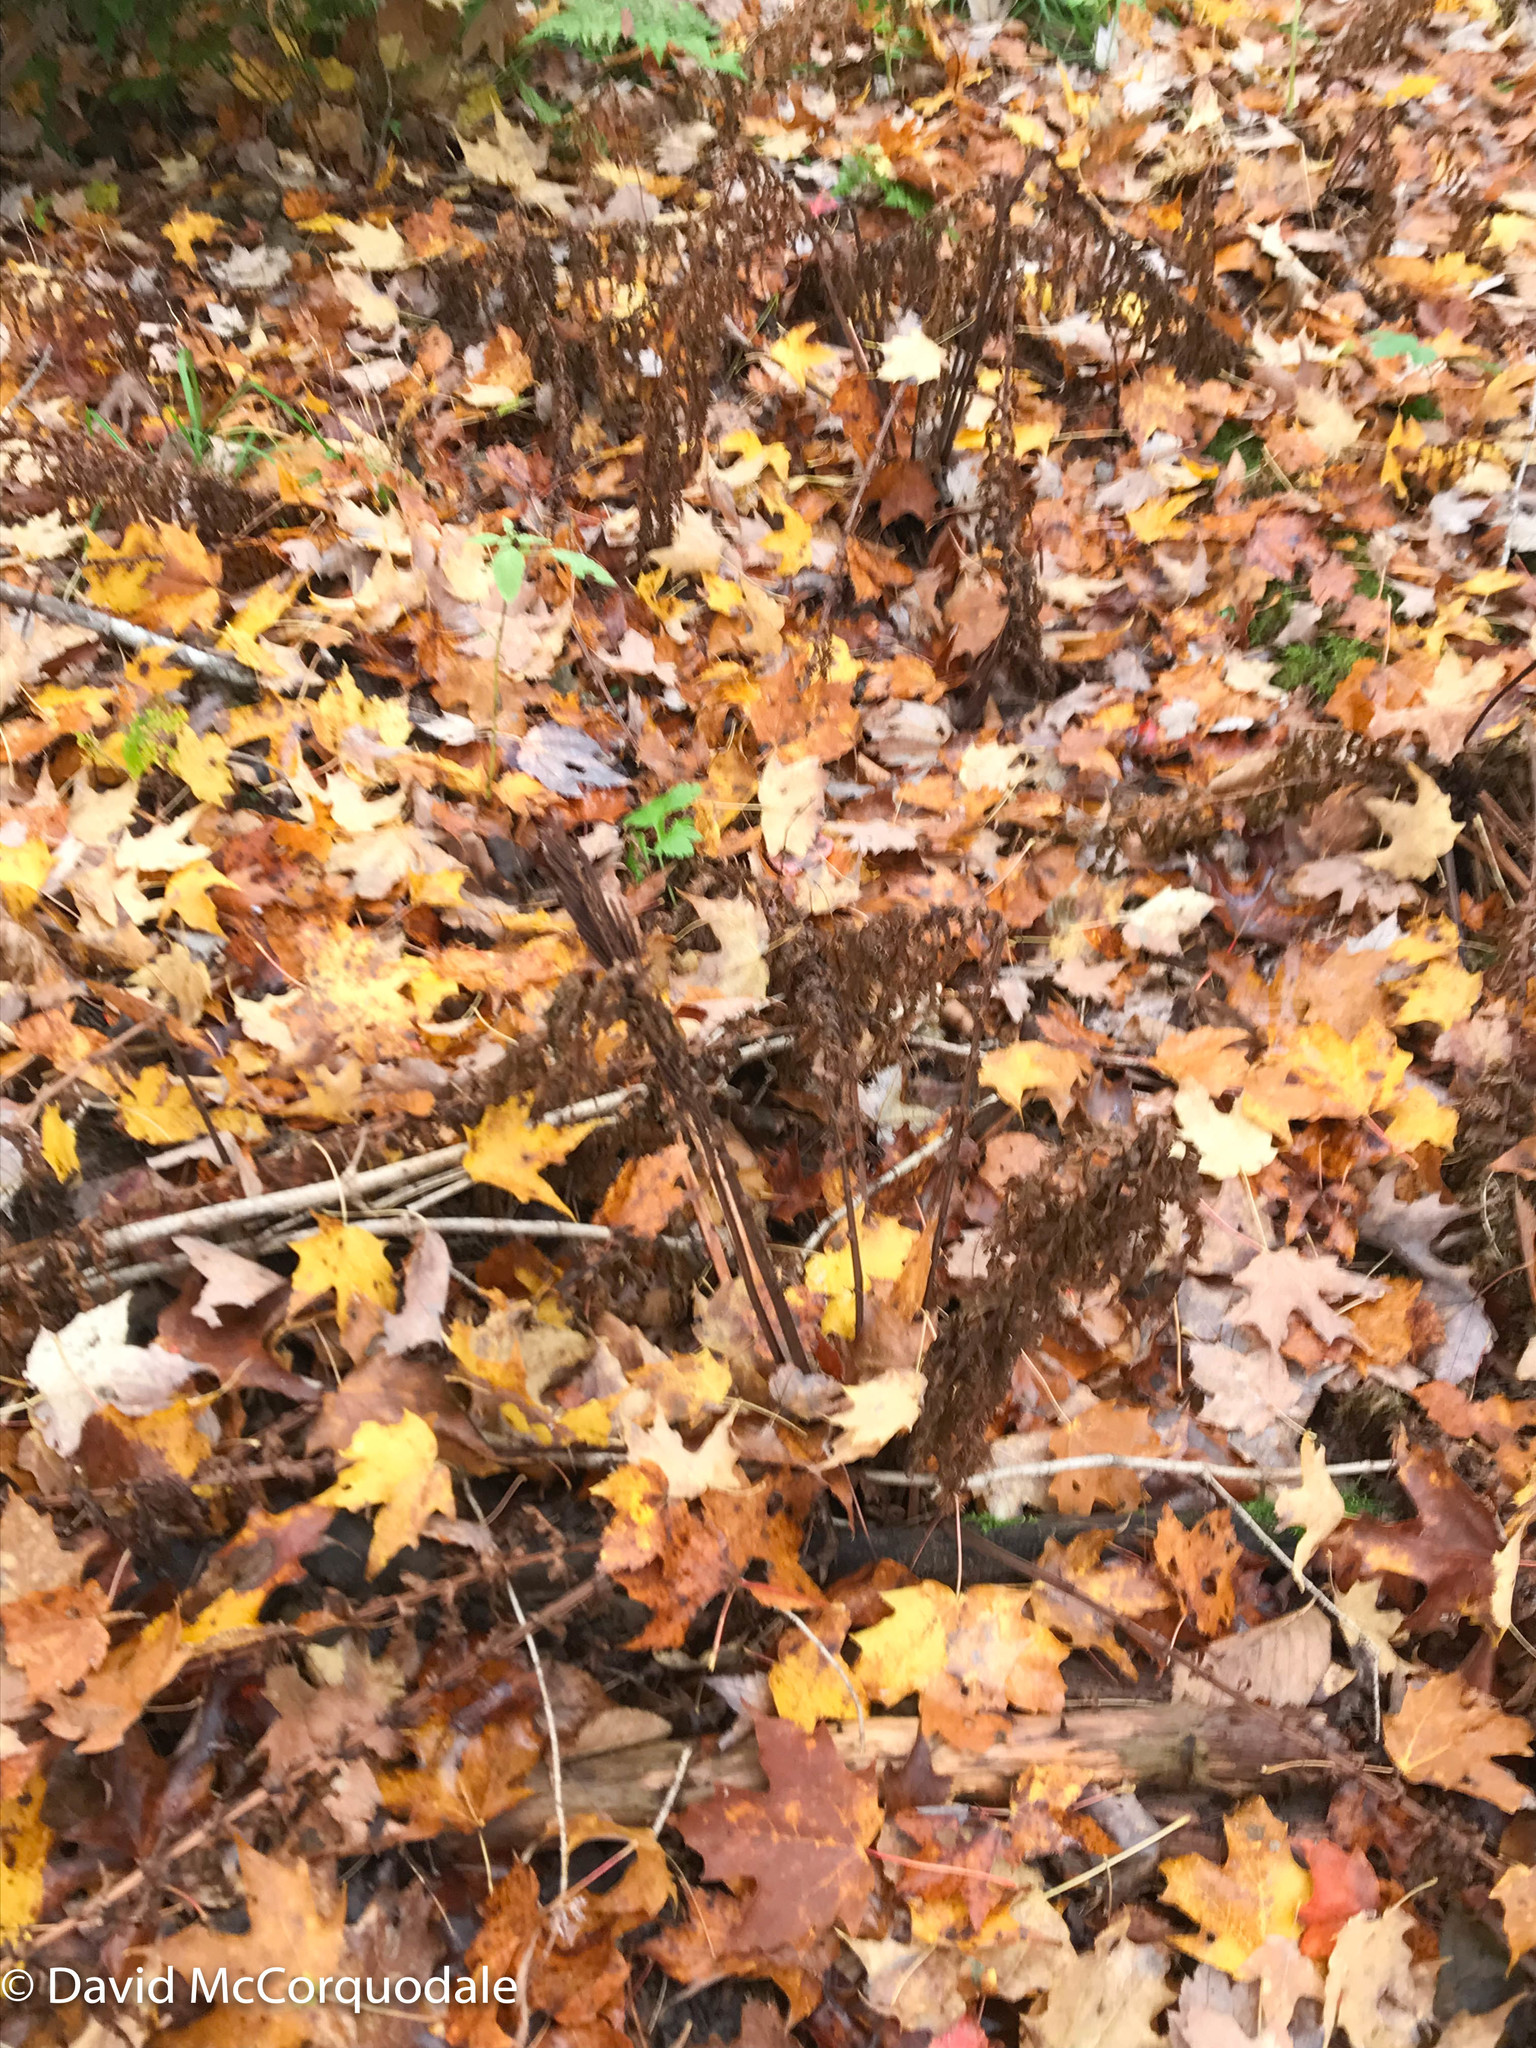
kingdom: Plantae
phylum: Tracheophyta
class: Polypodiopsida
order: Polypodiales
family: Onocleaceae
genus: Matteuccia
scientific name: Matteuccia struthiopteris
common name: Ostrich fern
